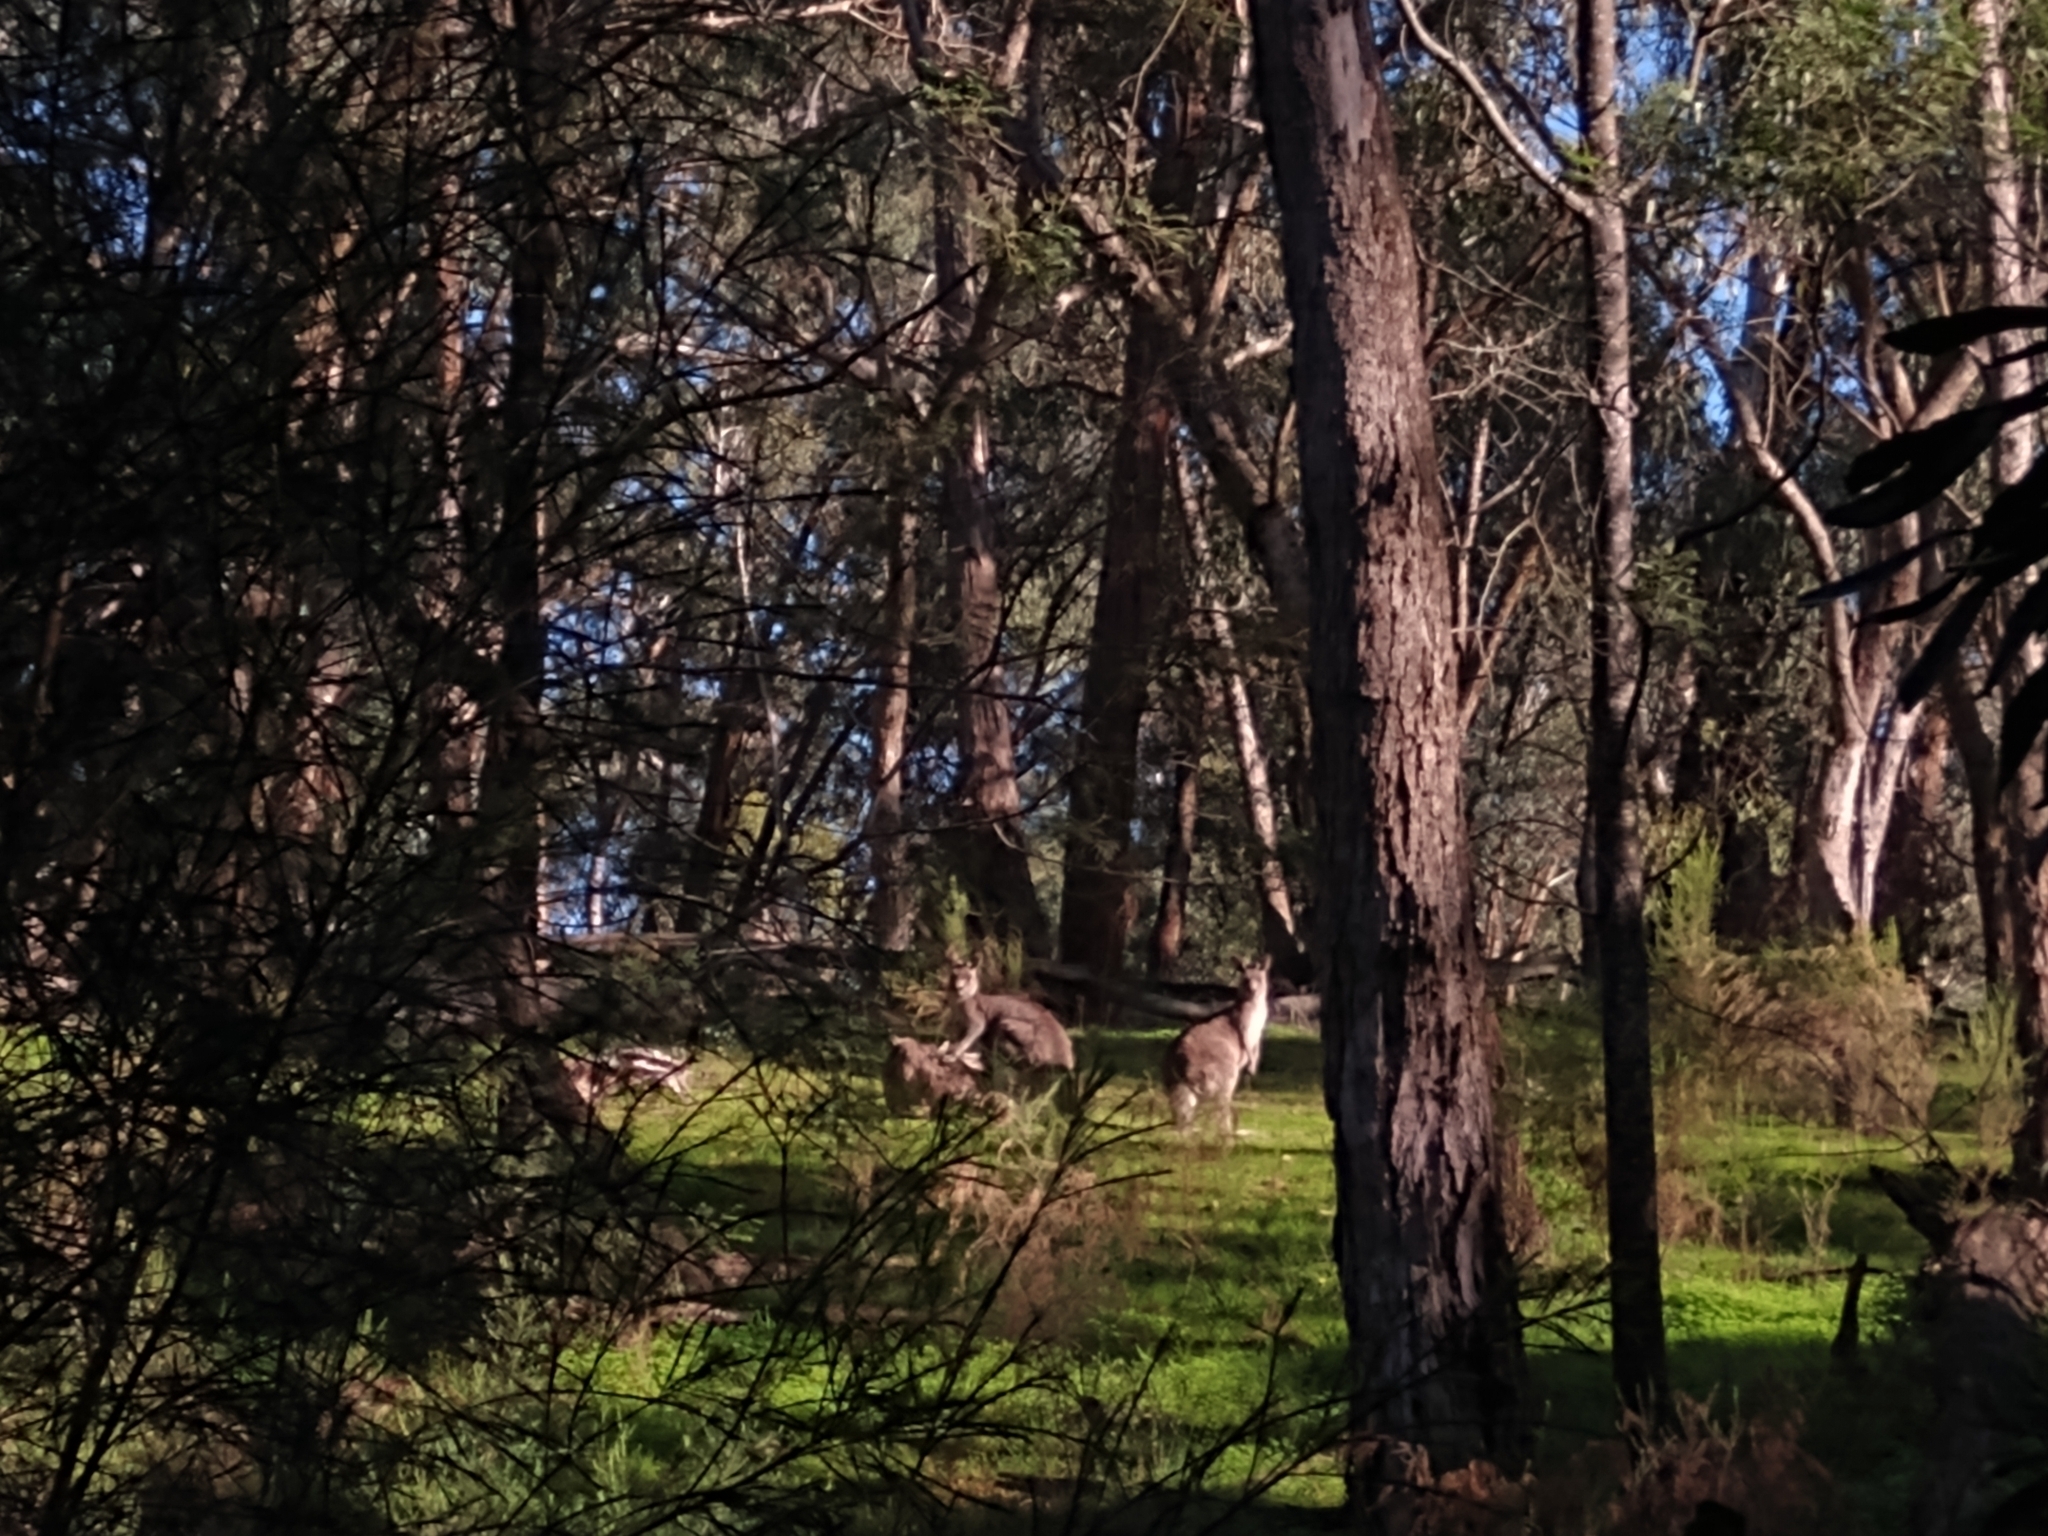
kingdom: Animalia
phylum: Chordata
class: Mammalia
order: Diprotodontia
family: Macropodidae
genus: Macropus
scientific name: Macropus giganteus
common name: Eastern grey kangaroo
